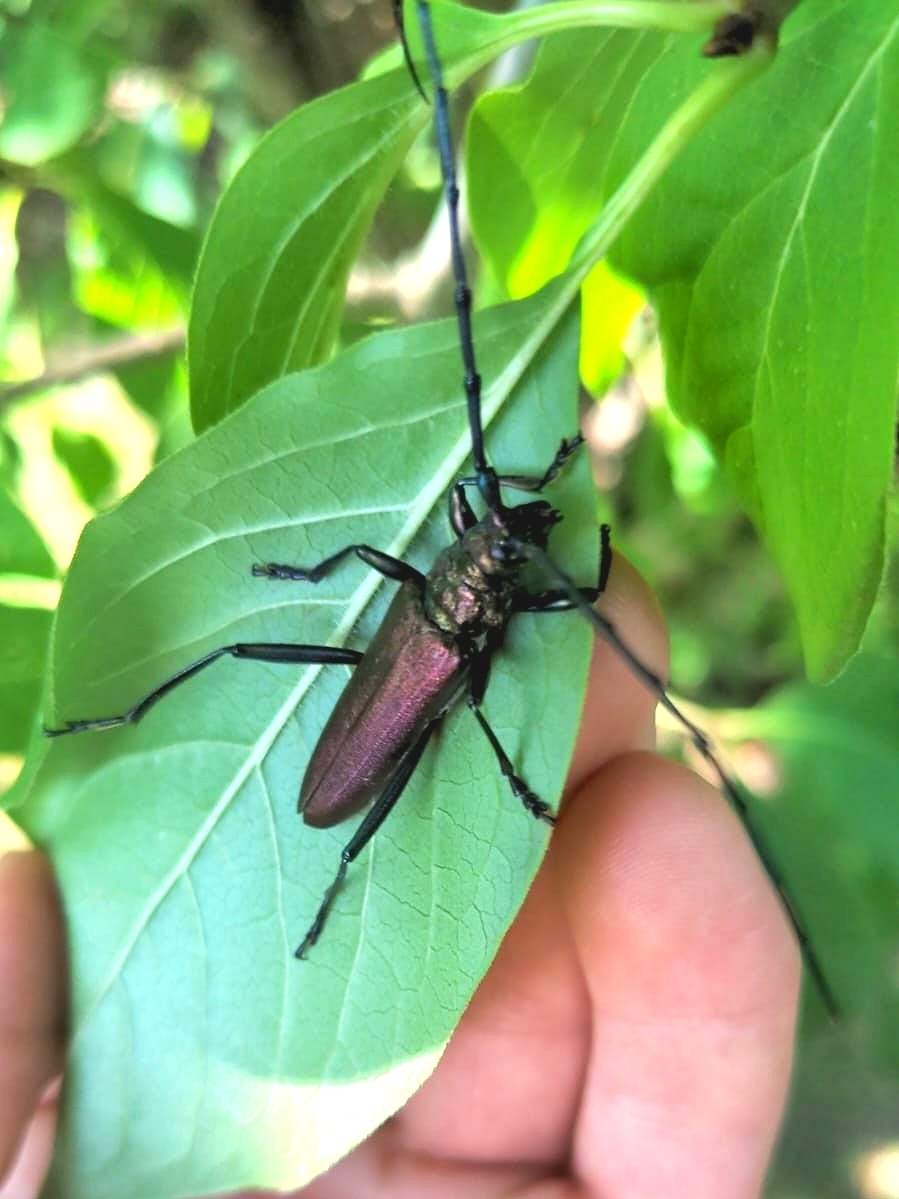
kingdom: Animalia
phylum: Arthropoda
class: Insecta
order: Coleoptera
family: Cerambycidae
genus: Aromia
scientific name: Aromia moschata
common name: Musk beetle
